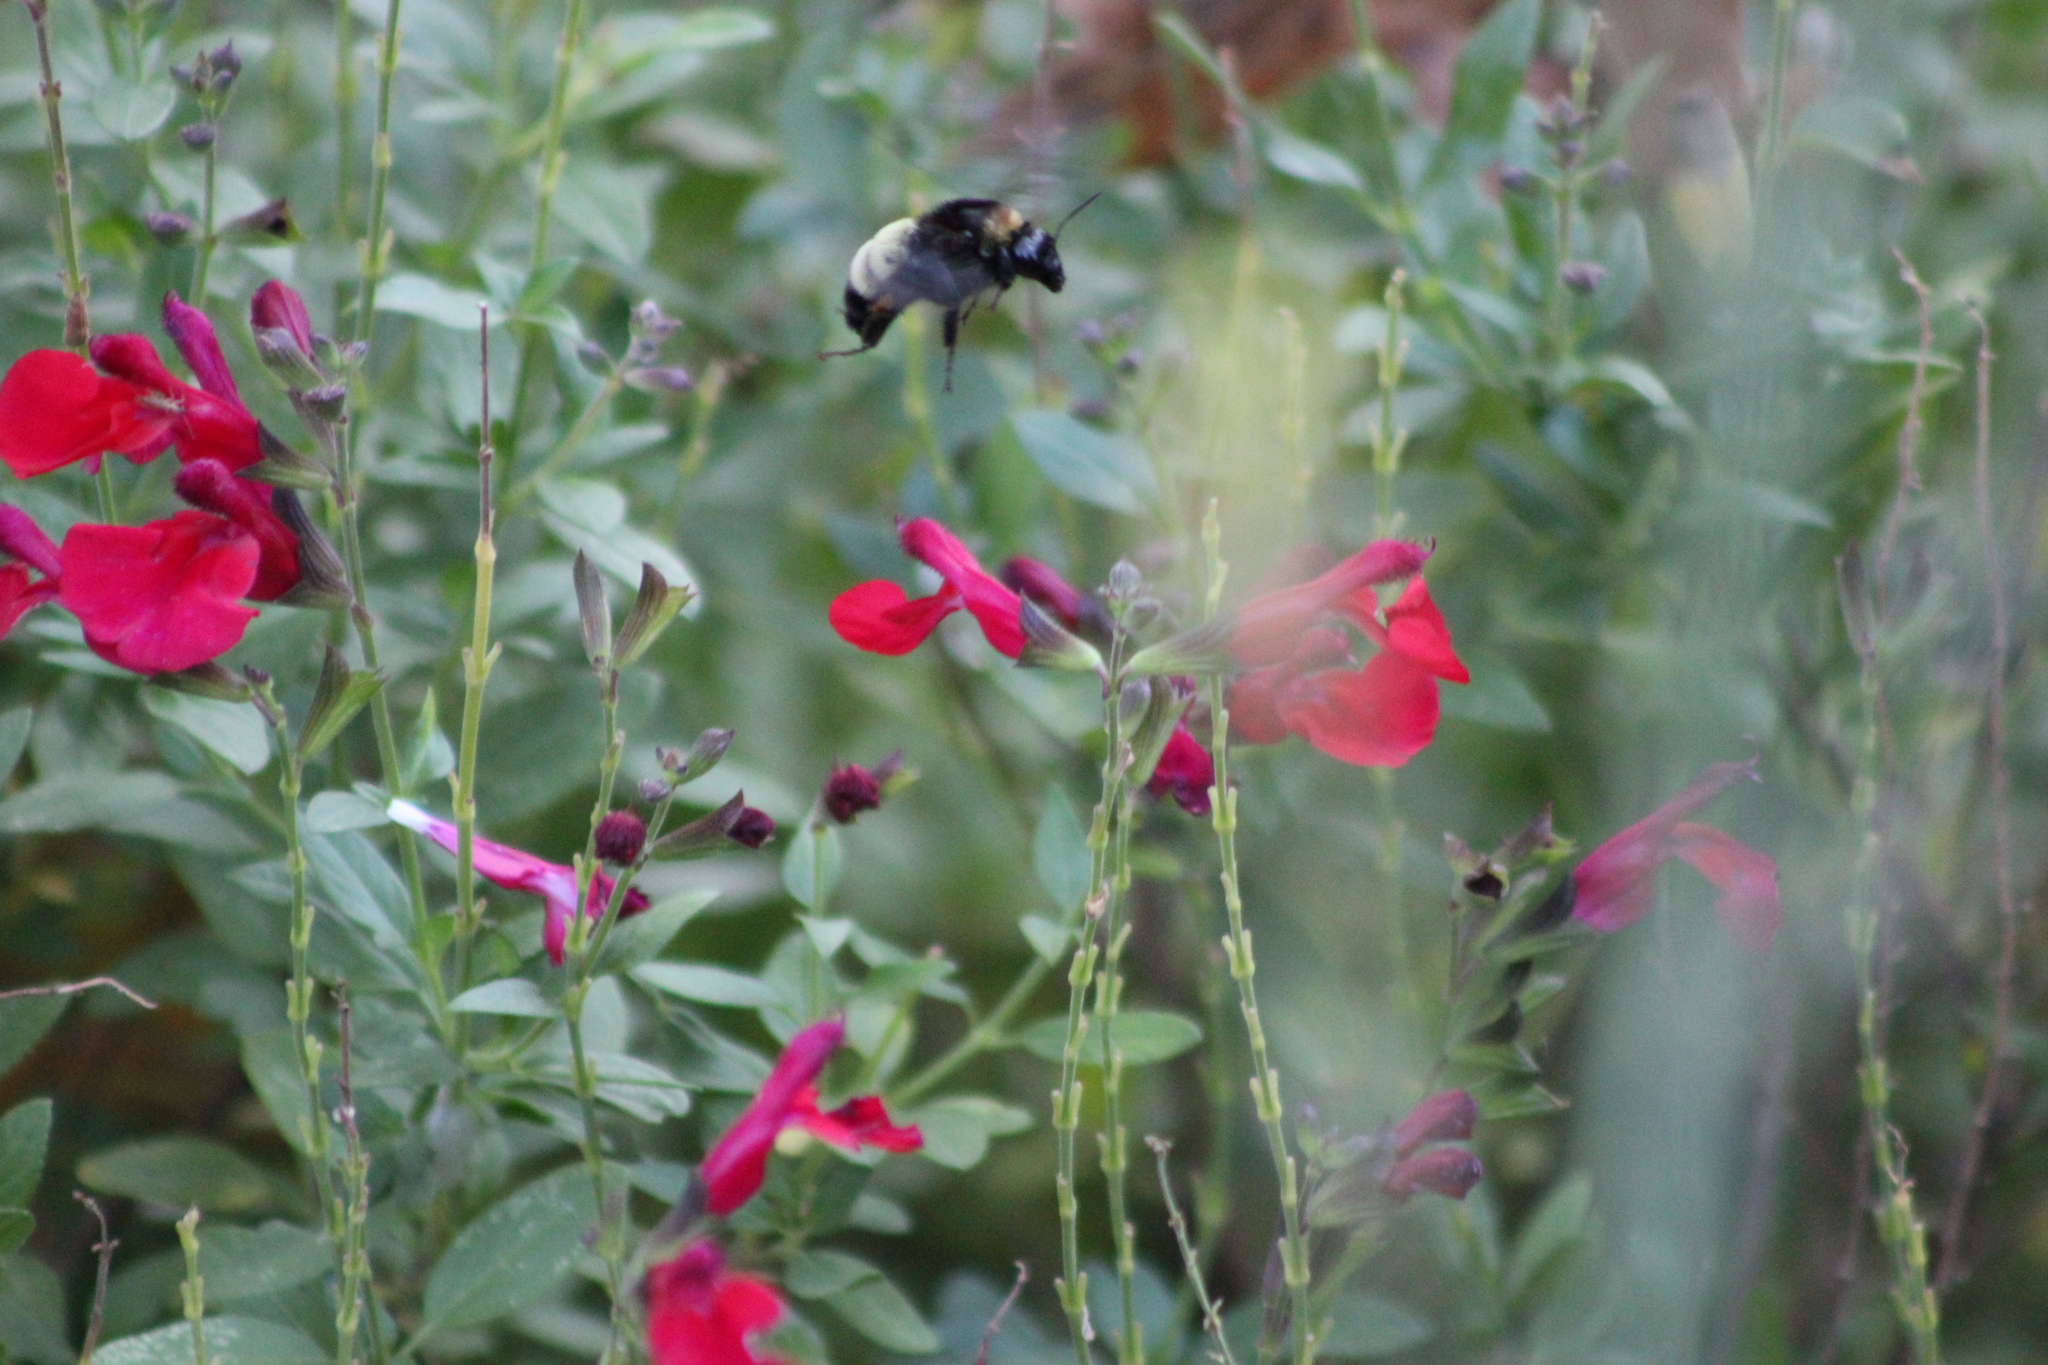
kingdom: Animalia
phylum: Arthropoda
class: Insecta
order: Hymenoptera
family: Apidae
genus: Bombus
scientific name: Bombus pensylvanicus
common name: Bumble bee
